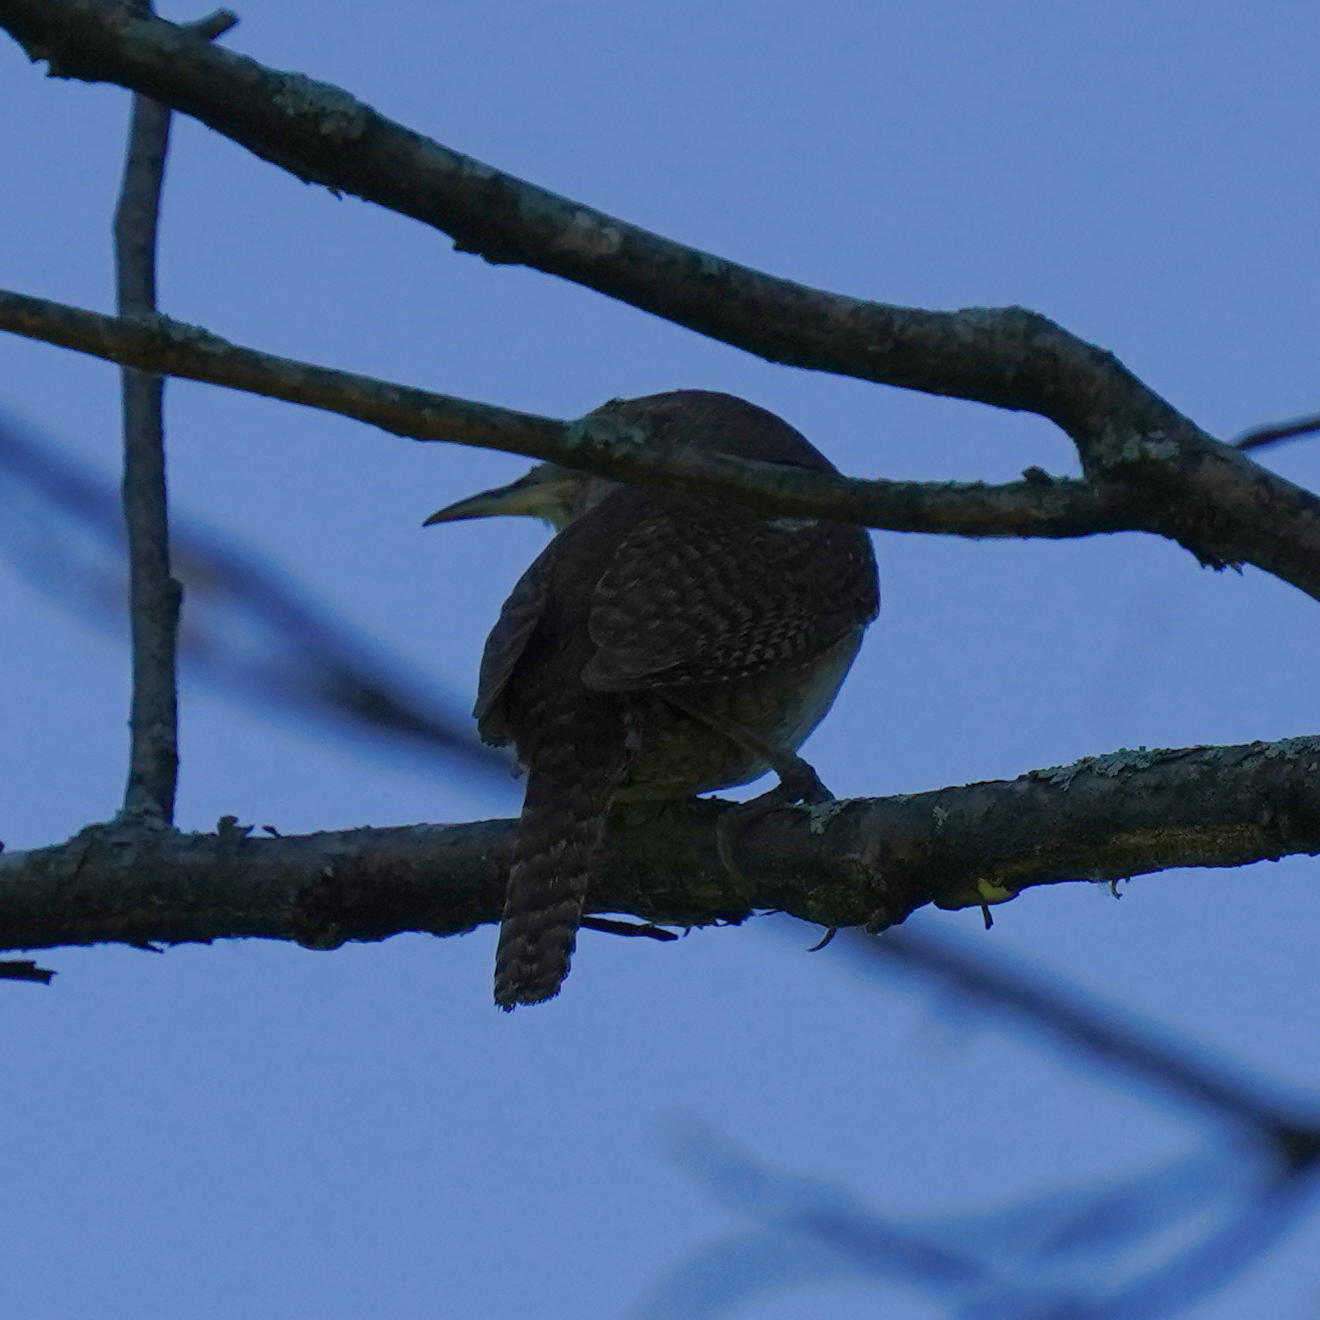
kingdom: Animalia
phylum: Chordata
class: Aves
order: Passeriformes
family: Troglodytidae
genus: Troglodytes
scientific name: Troglodytes aedon
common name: House wren
